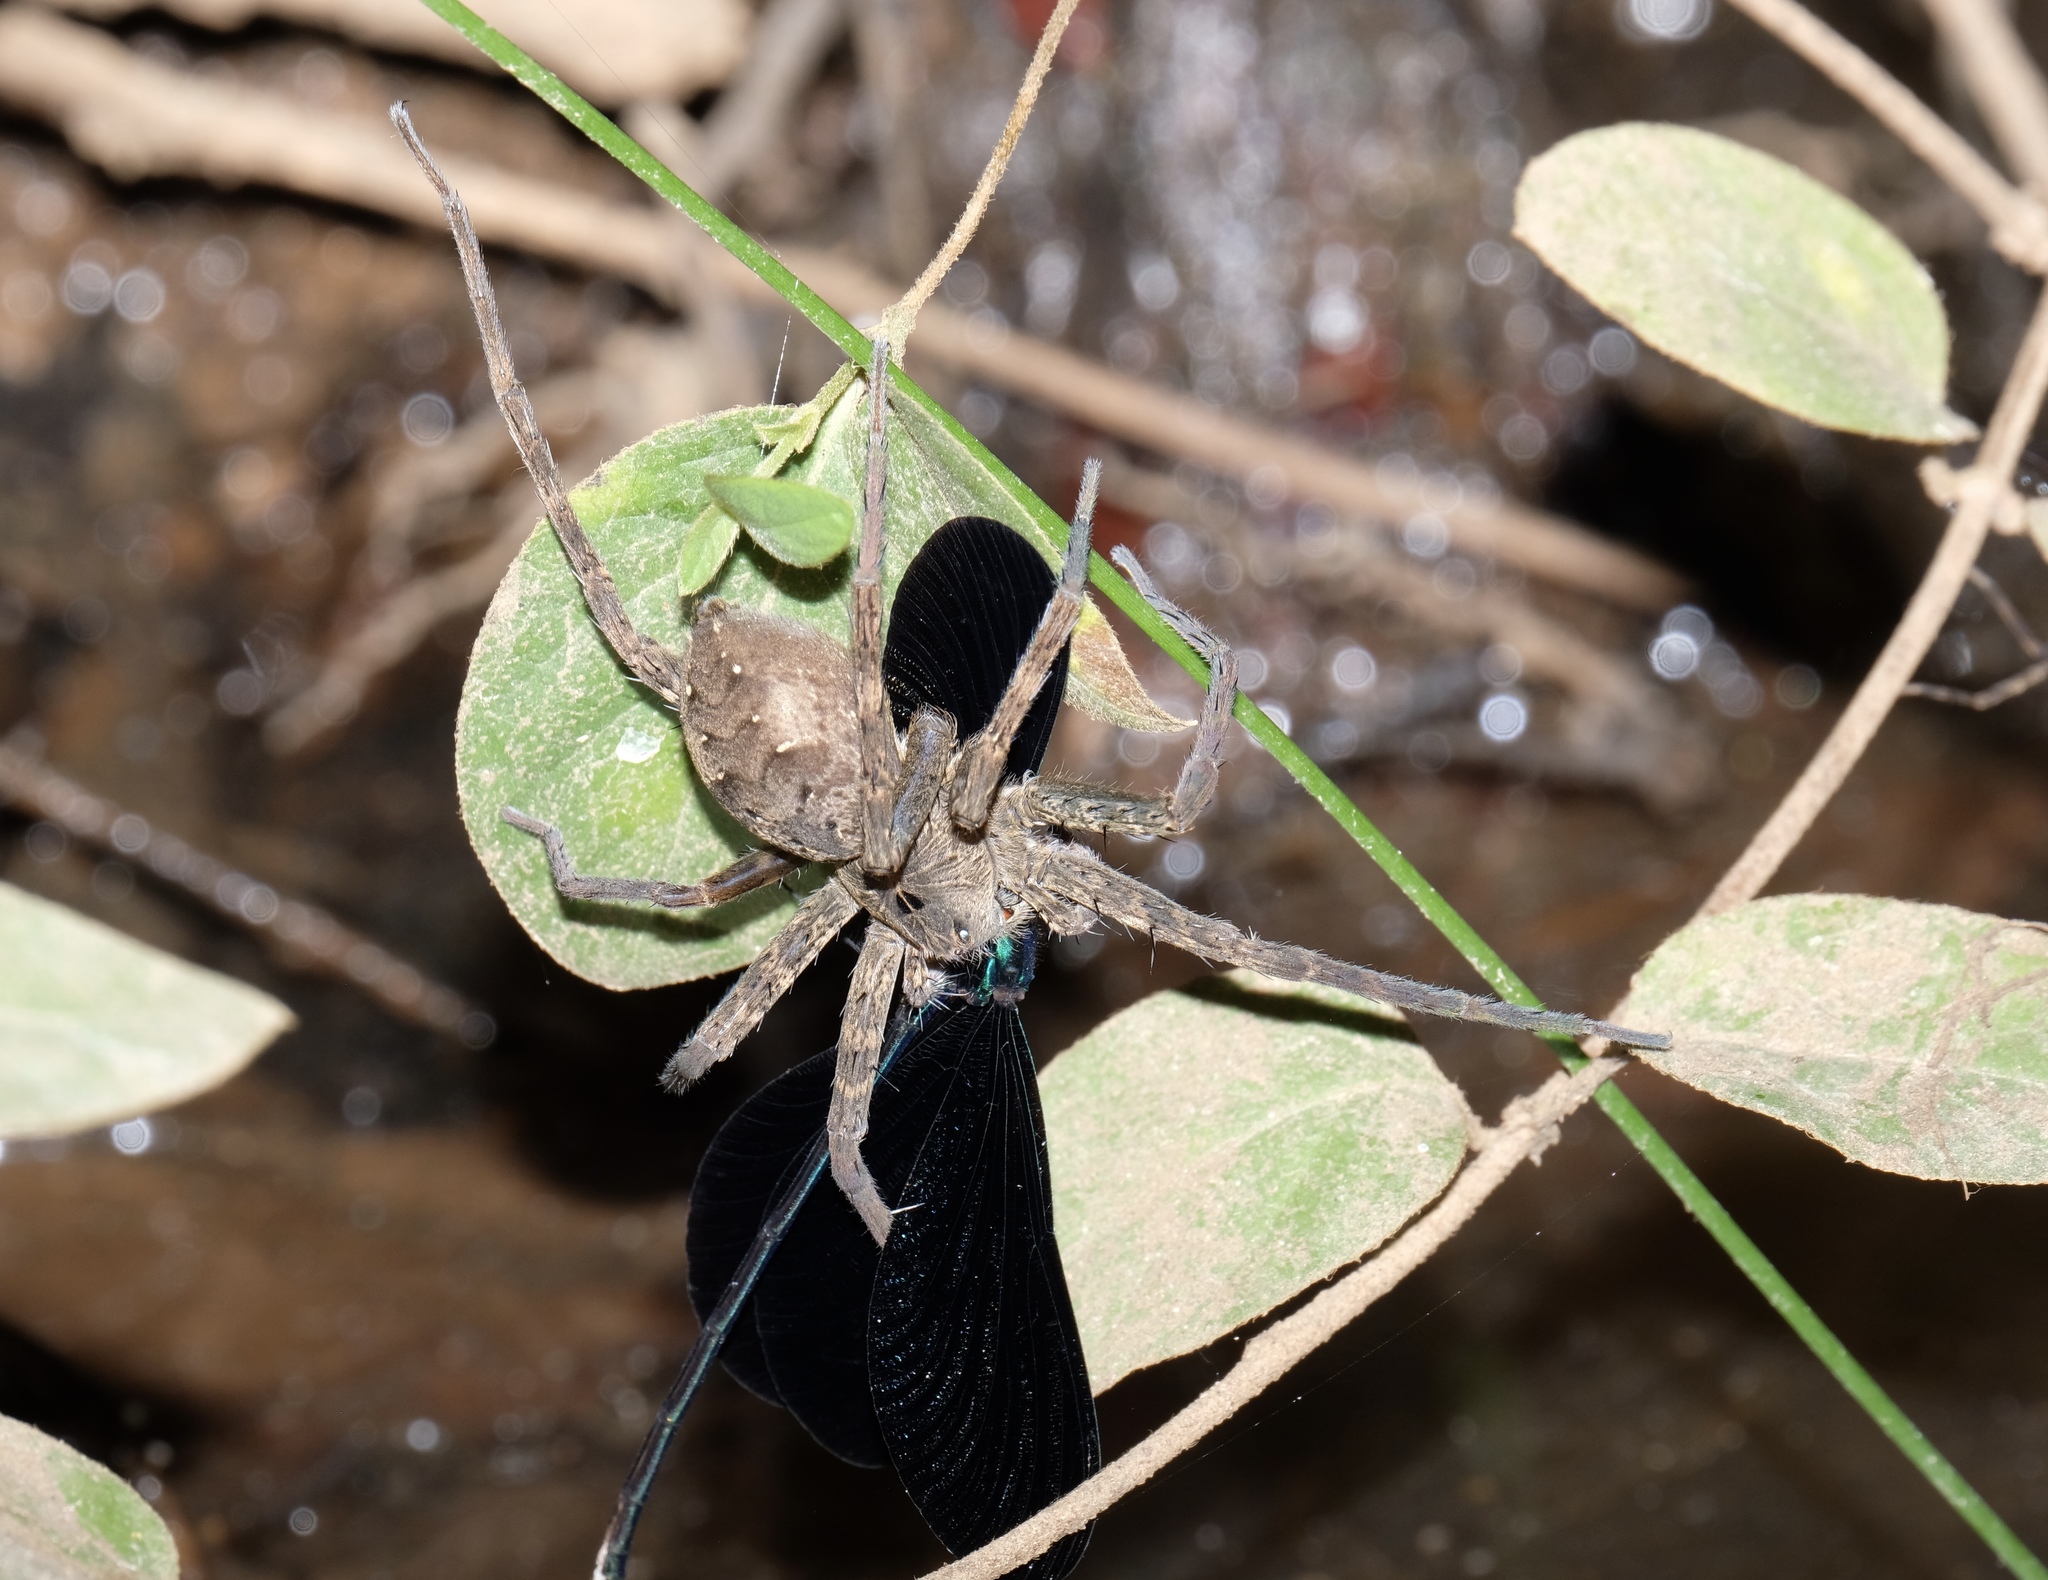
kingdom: Animalia
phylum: Arthropoda
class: Arachnida
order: Araneae
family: Pisauridae
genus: Dolomedes
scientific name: Dolomedes vittatus
